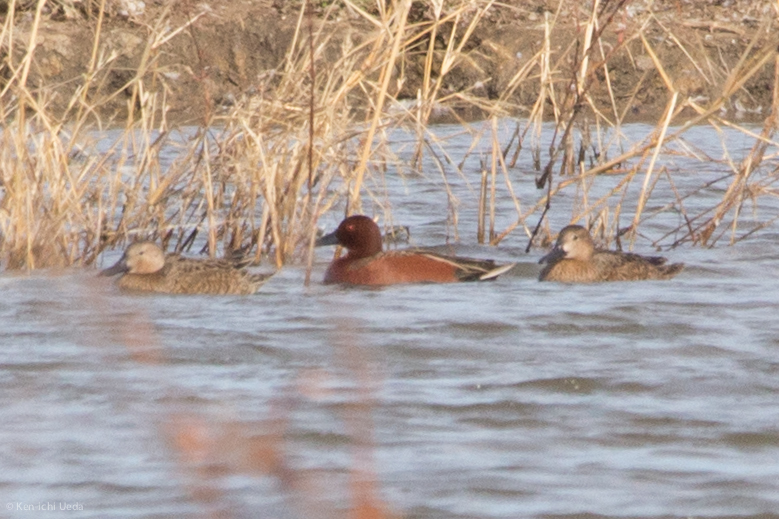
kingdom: Animalia
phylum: Chordata
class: Aves
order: Anseriformes
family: Anatidae
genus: Spatula
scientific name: Spatula cyanoptera
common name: Cinnamon teal
